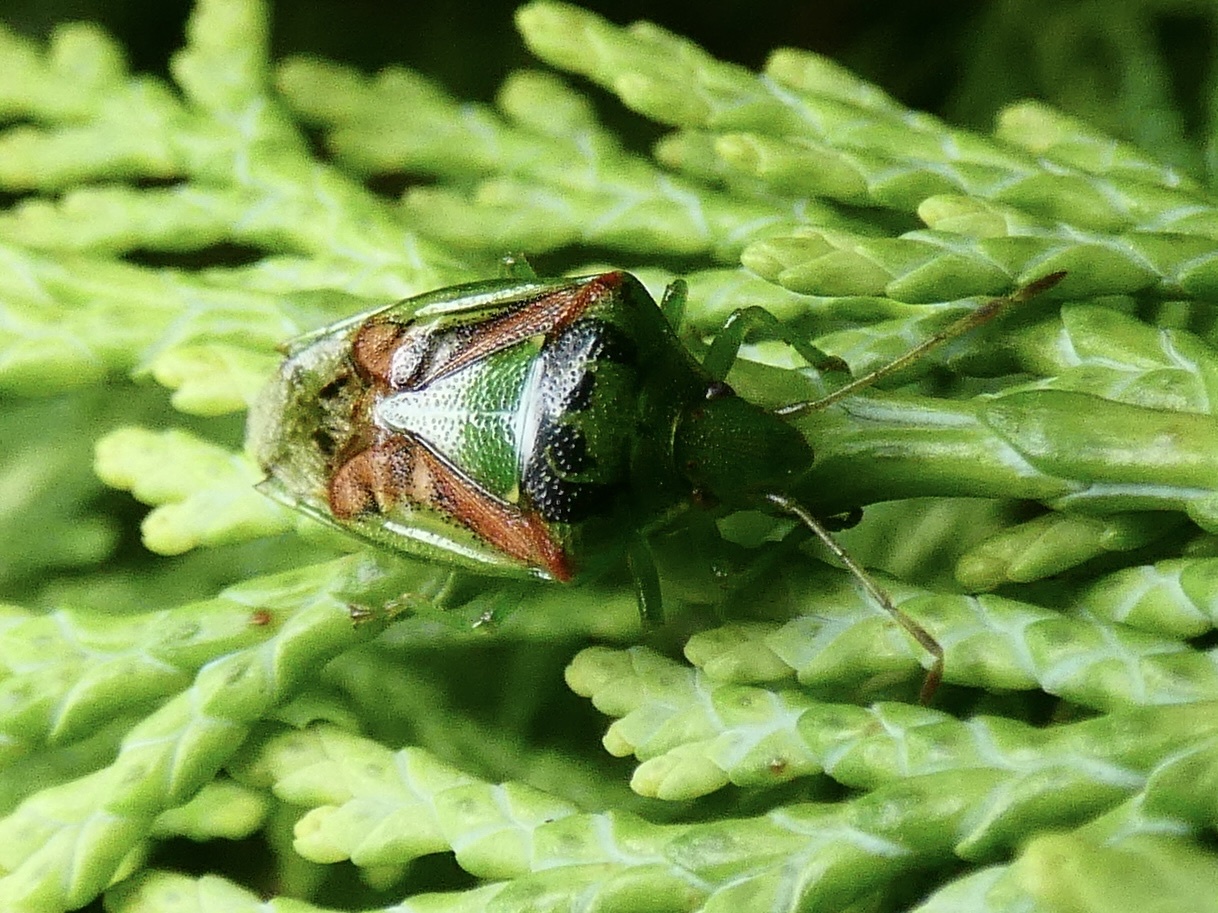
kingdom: Animalia
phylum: Arthropoda
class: Insecta
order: Hemiptera
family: Acanthosomatidae
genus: Cyphostethus
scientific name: Cyphostethus tristriatus
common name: Juniper shieldbug
